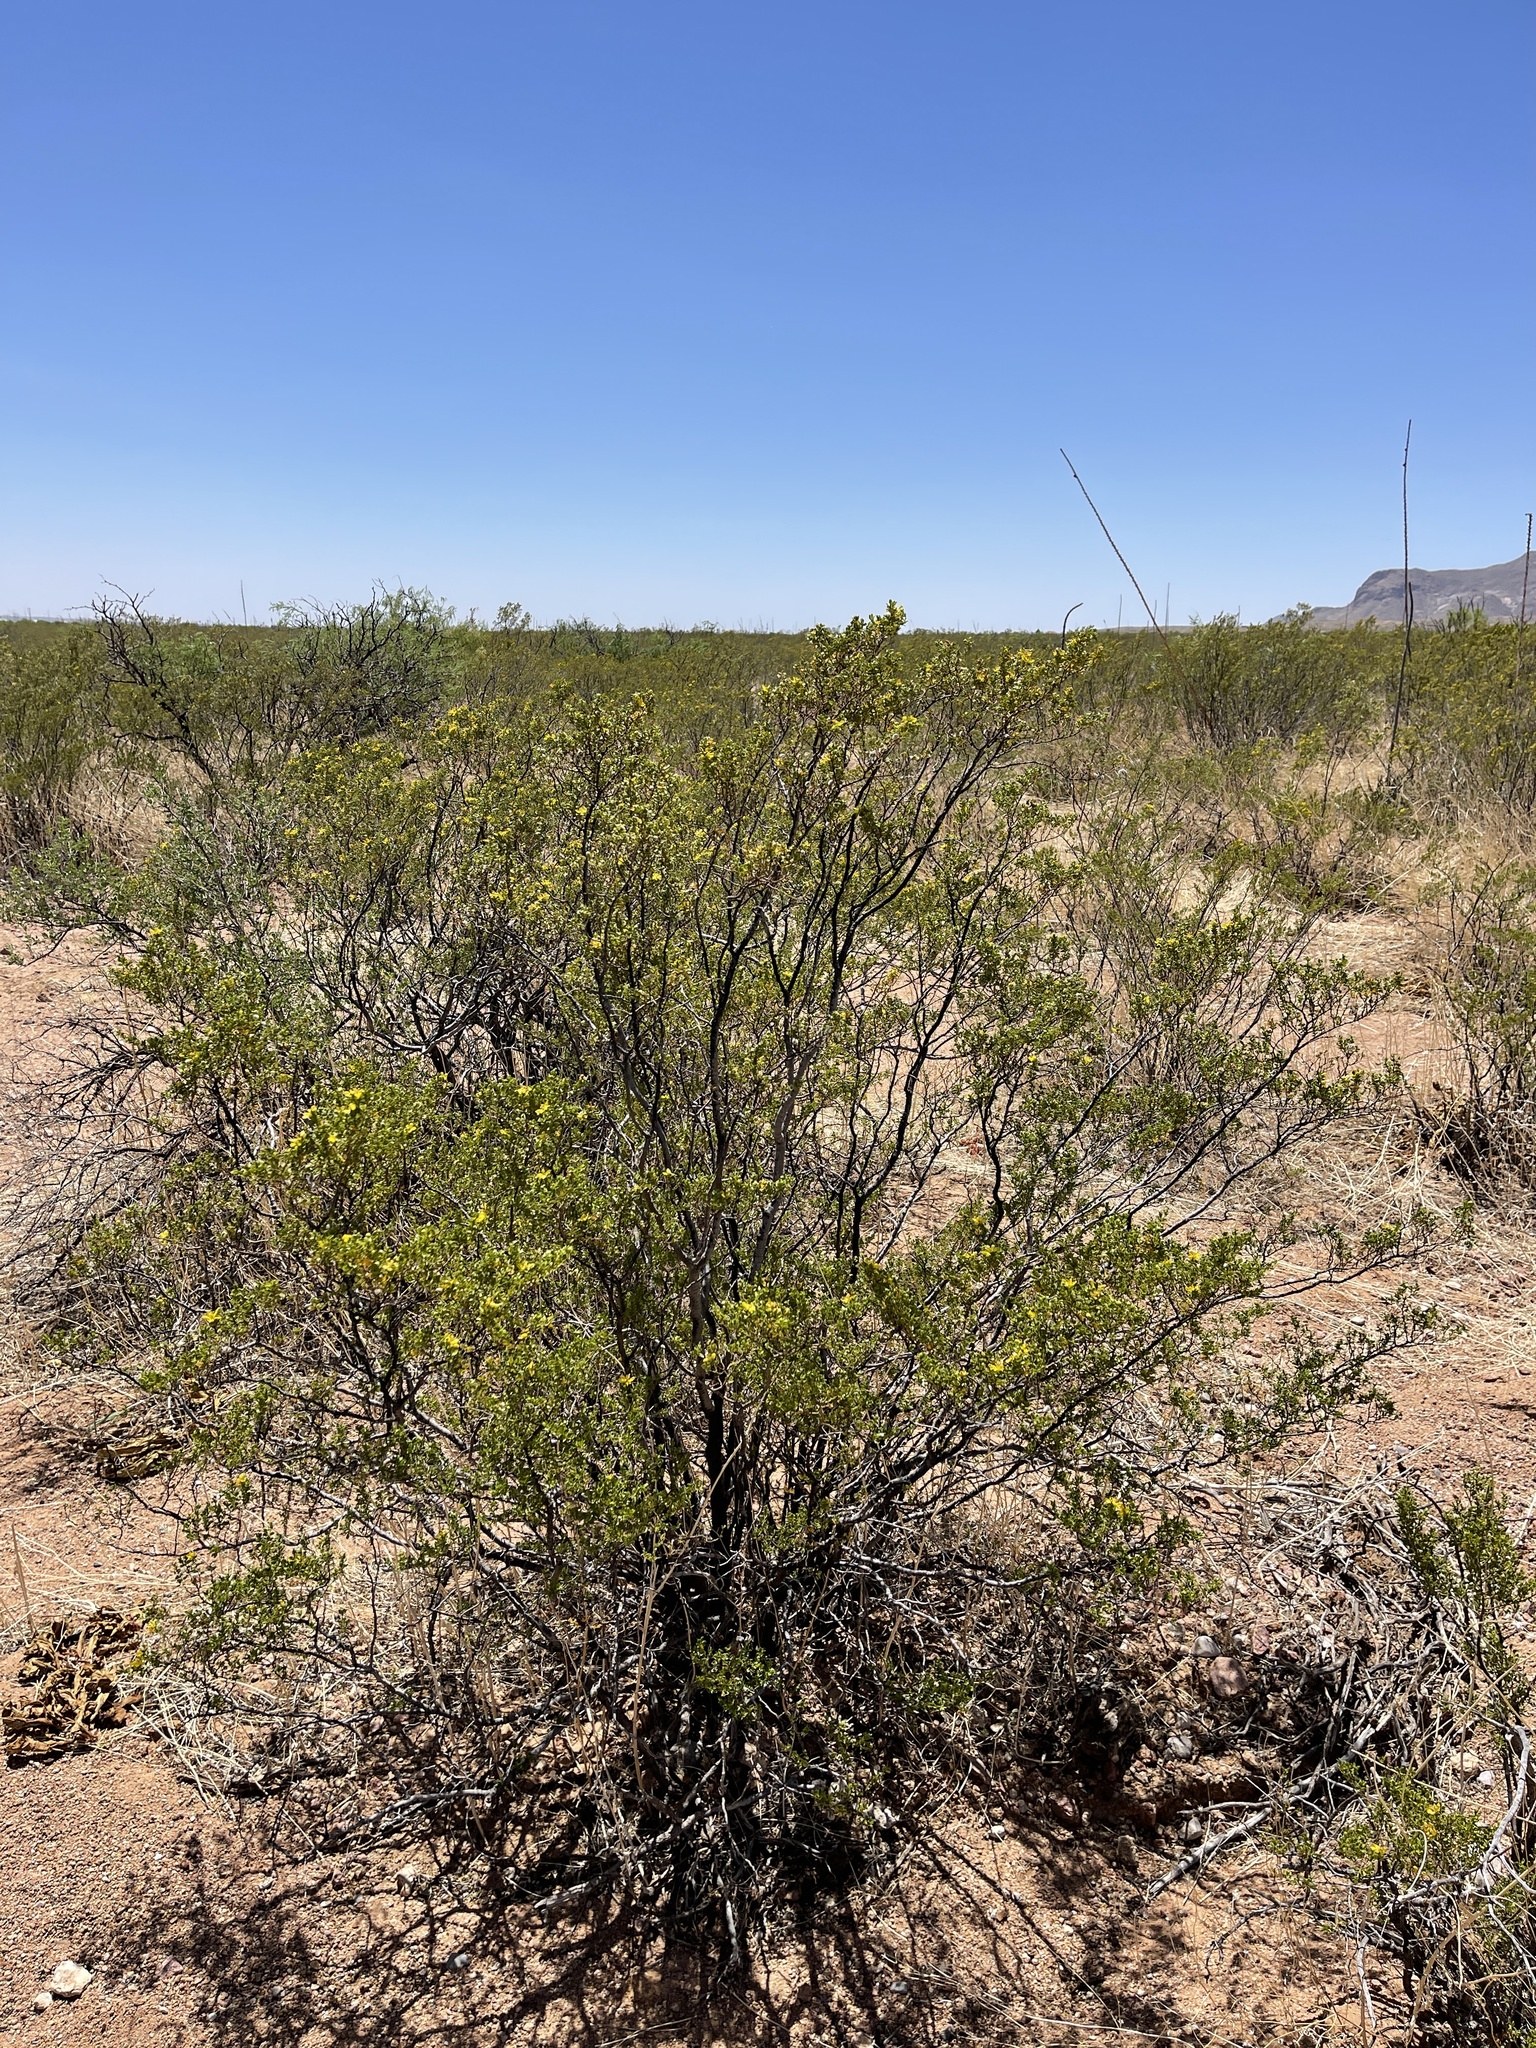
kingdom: Plantae
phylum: Tracheophyta
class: Magnoliopsida
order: Zygophyllales
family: Zygophyllaceae
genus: Larrea
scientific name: Larrea tridentata
